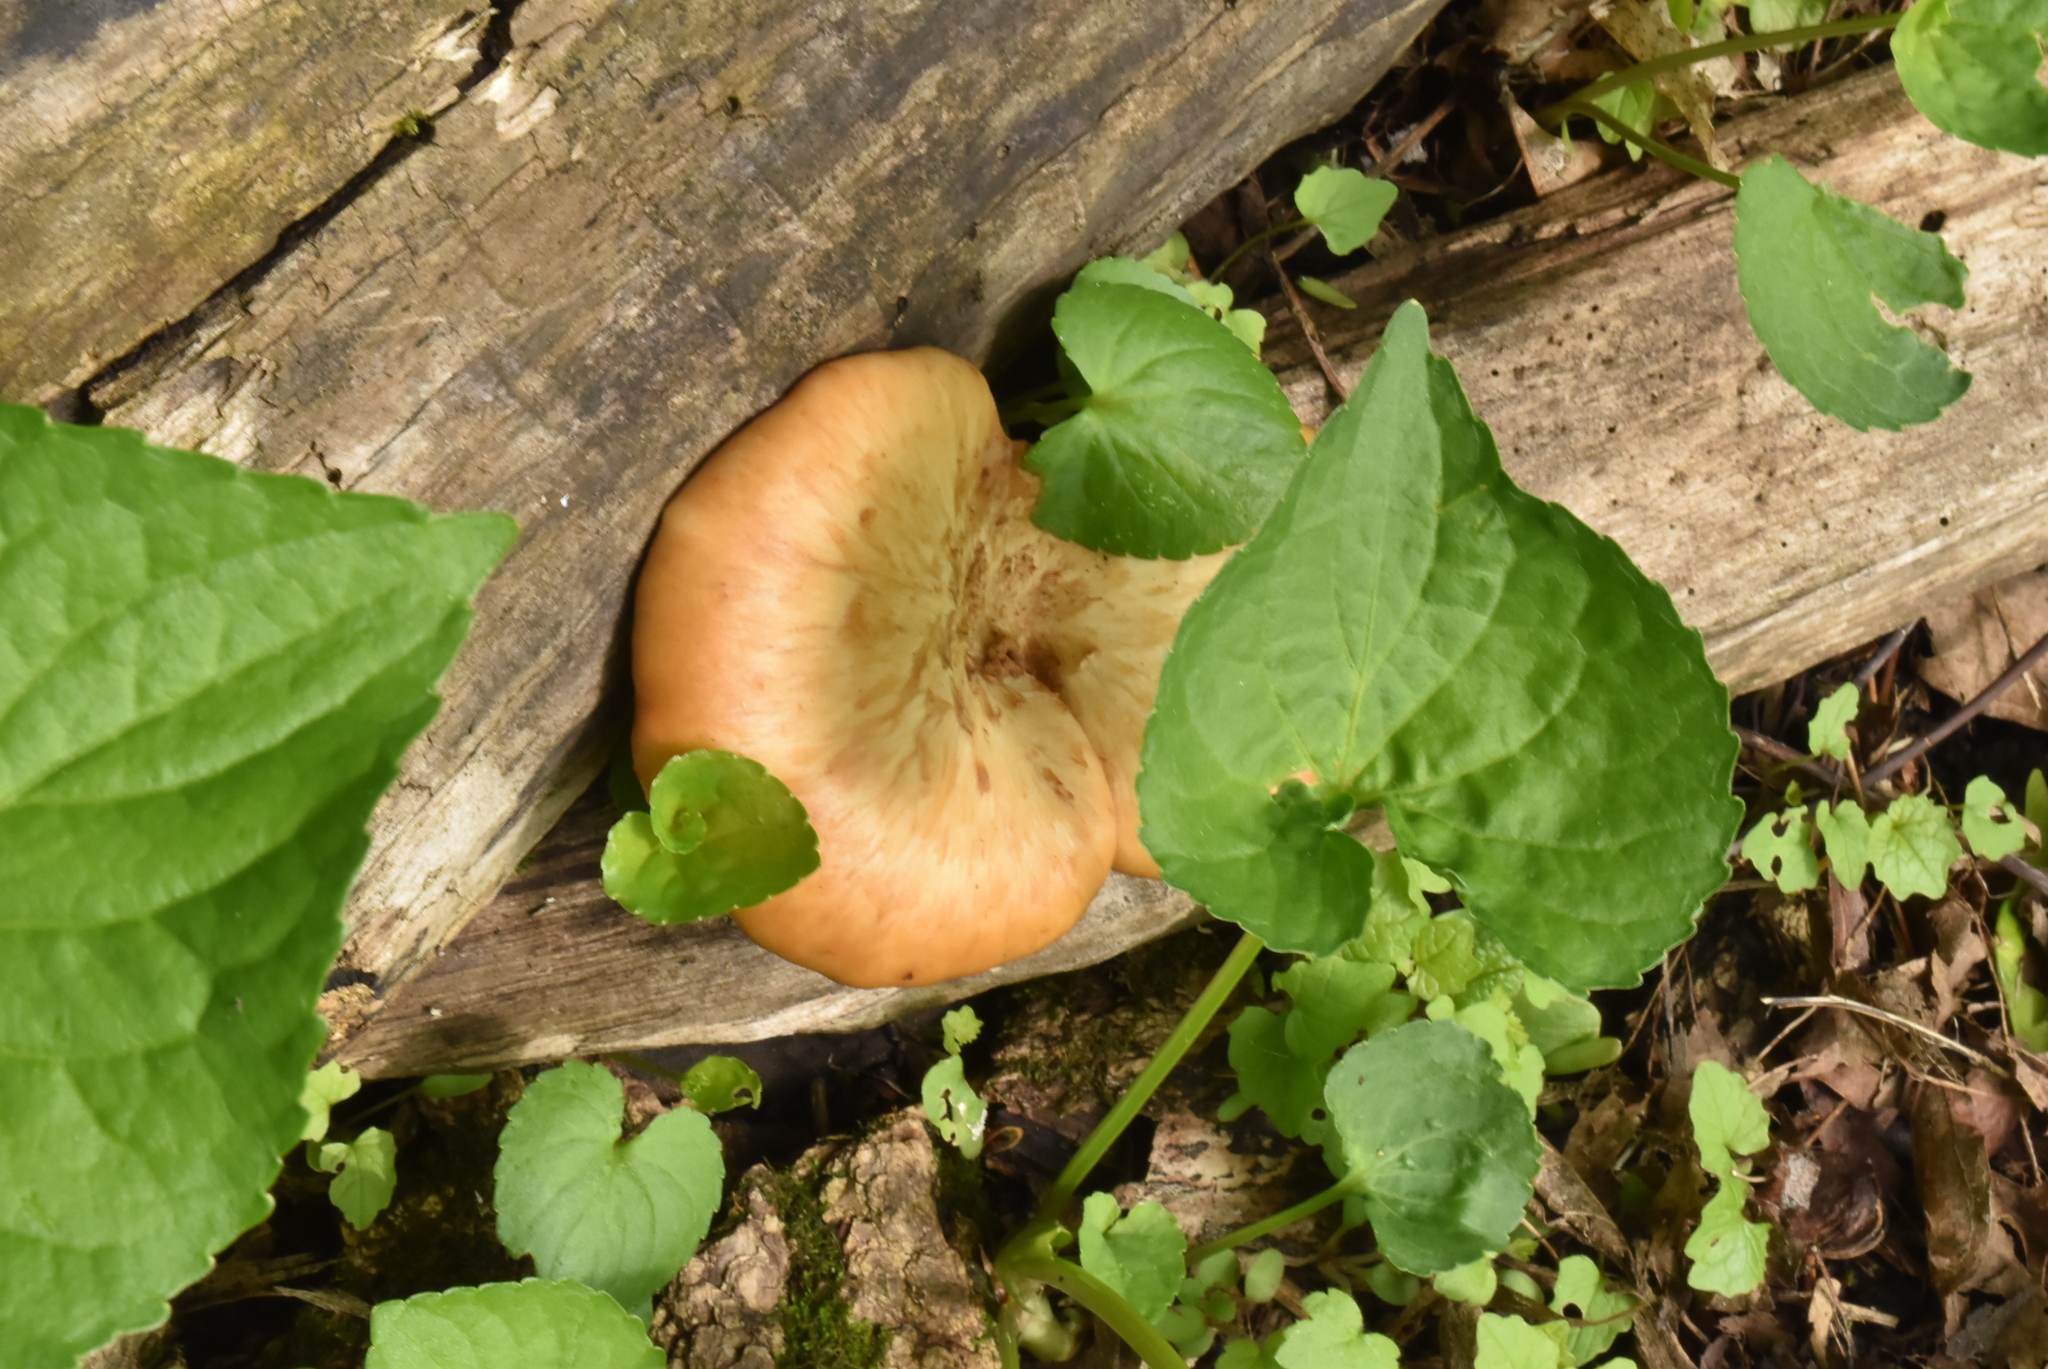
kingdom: Fungi
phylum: Basidiomycota
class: Agaricomycetes
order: Polyporales
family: Polyporaceae
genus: Cerioporus
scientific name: Cerioporus squamosus
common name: Dryad's saddle
